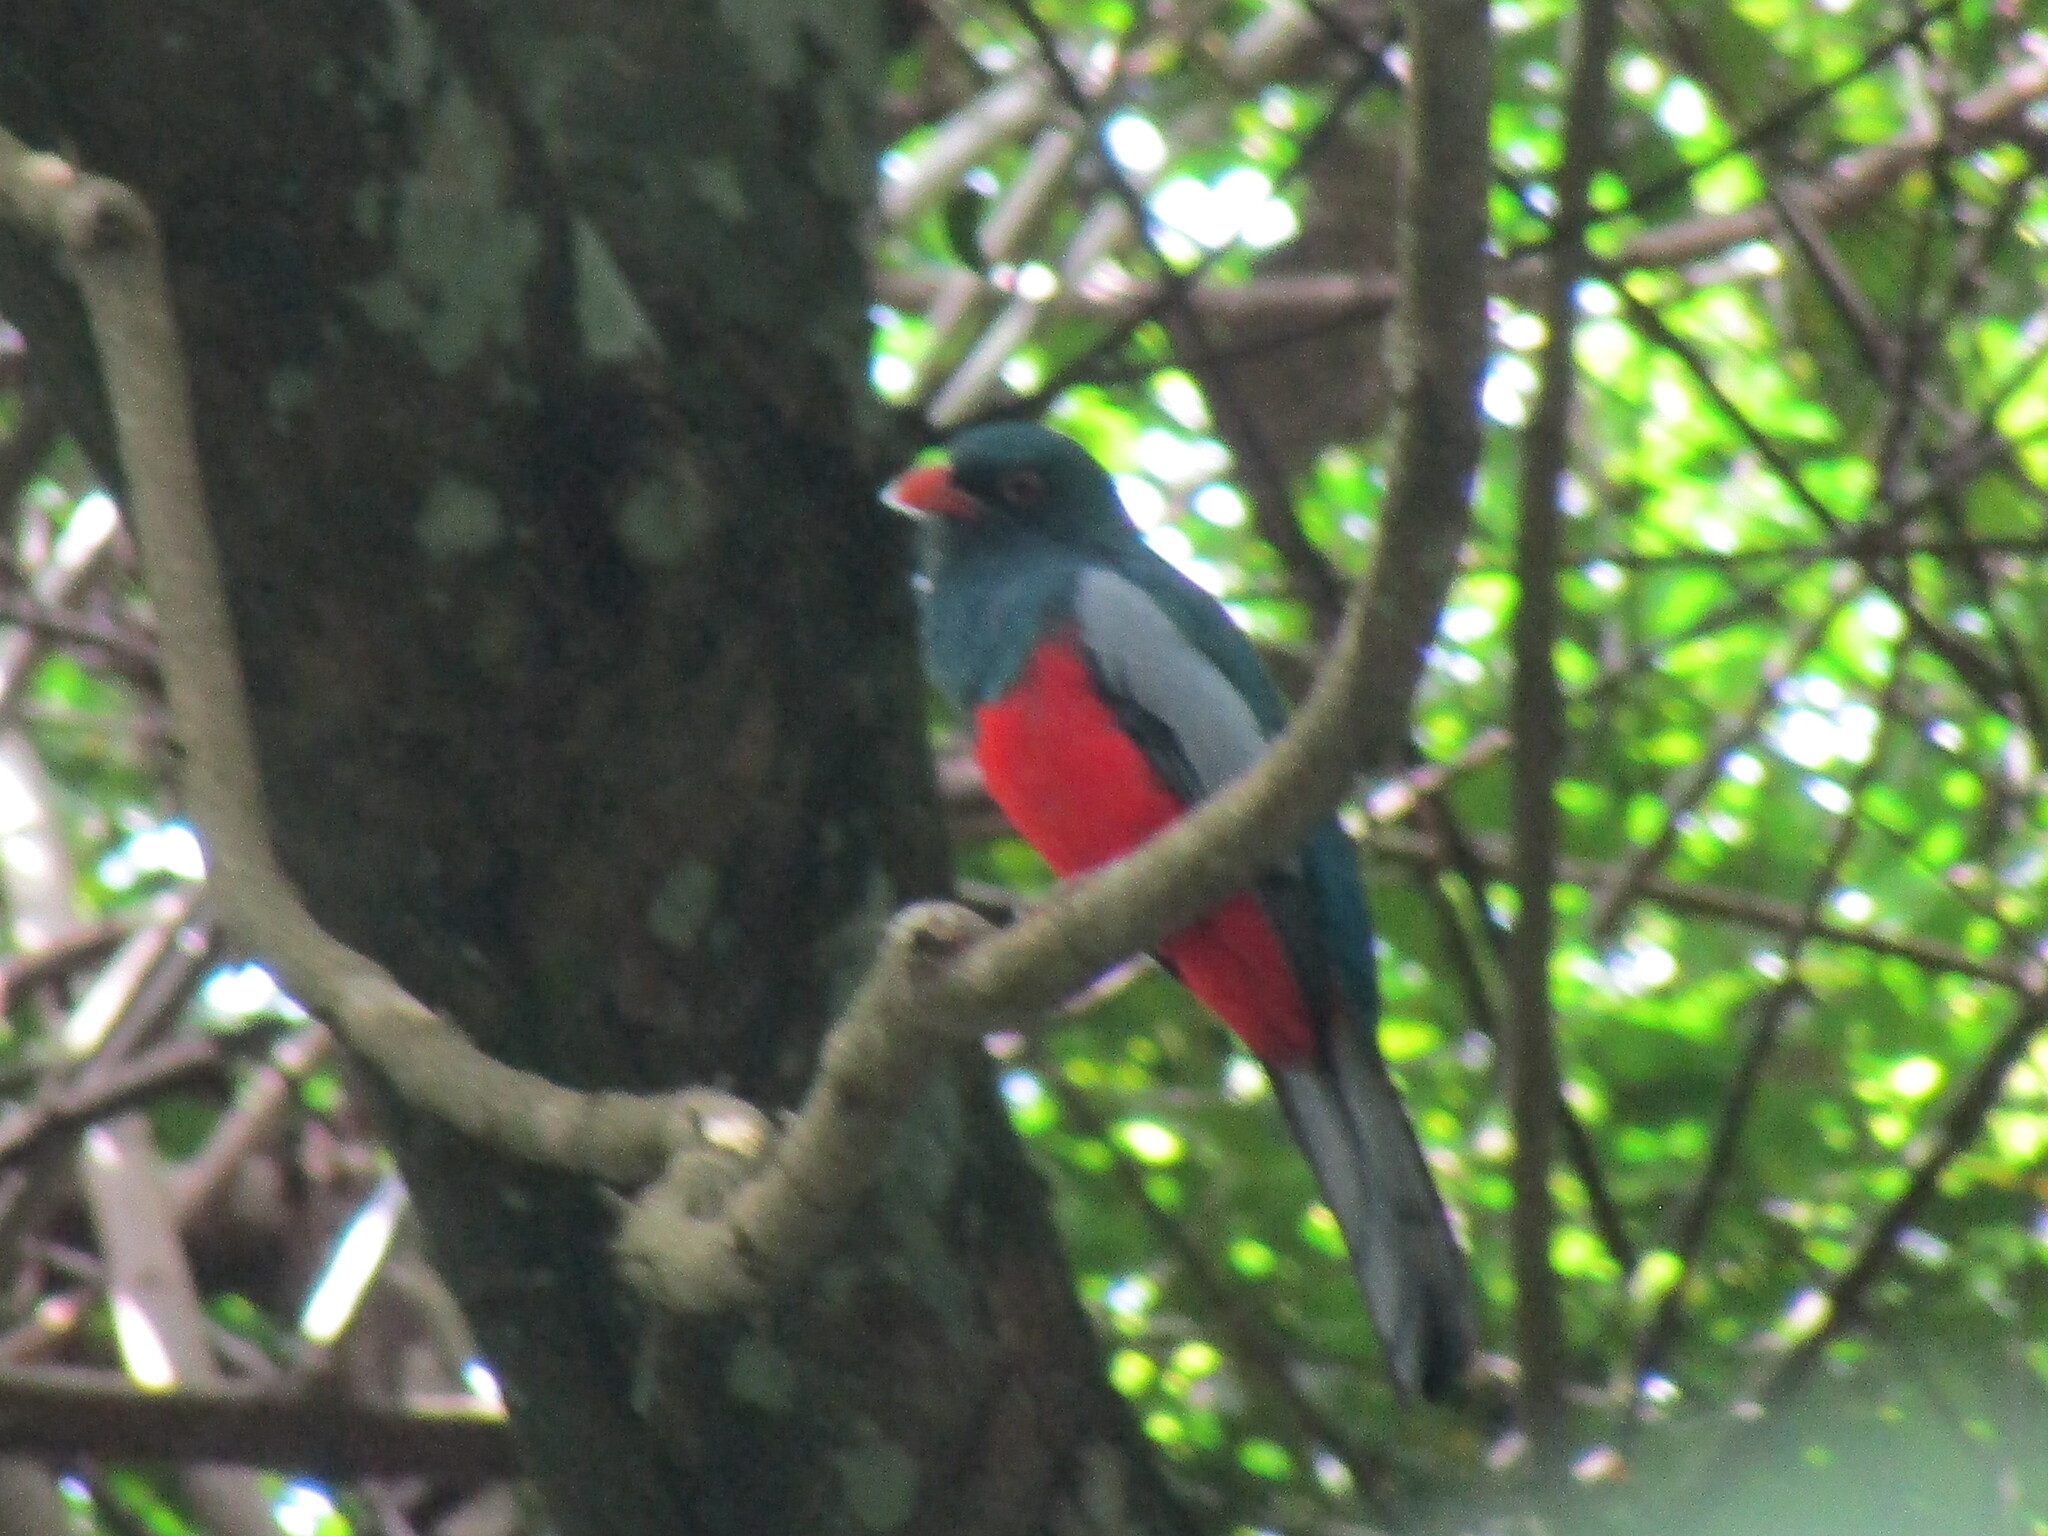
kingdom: Animalia
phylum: Chordata
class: Aves
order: Trogoniformes
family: Trogonidae
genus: Trogon
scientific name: Trogon massena
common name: Slaty-tailed trogon
